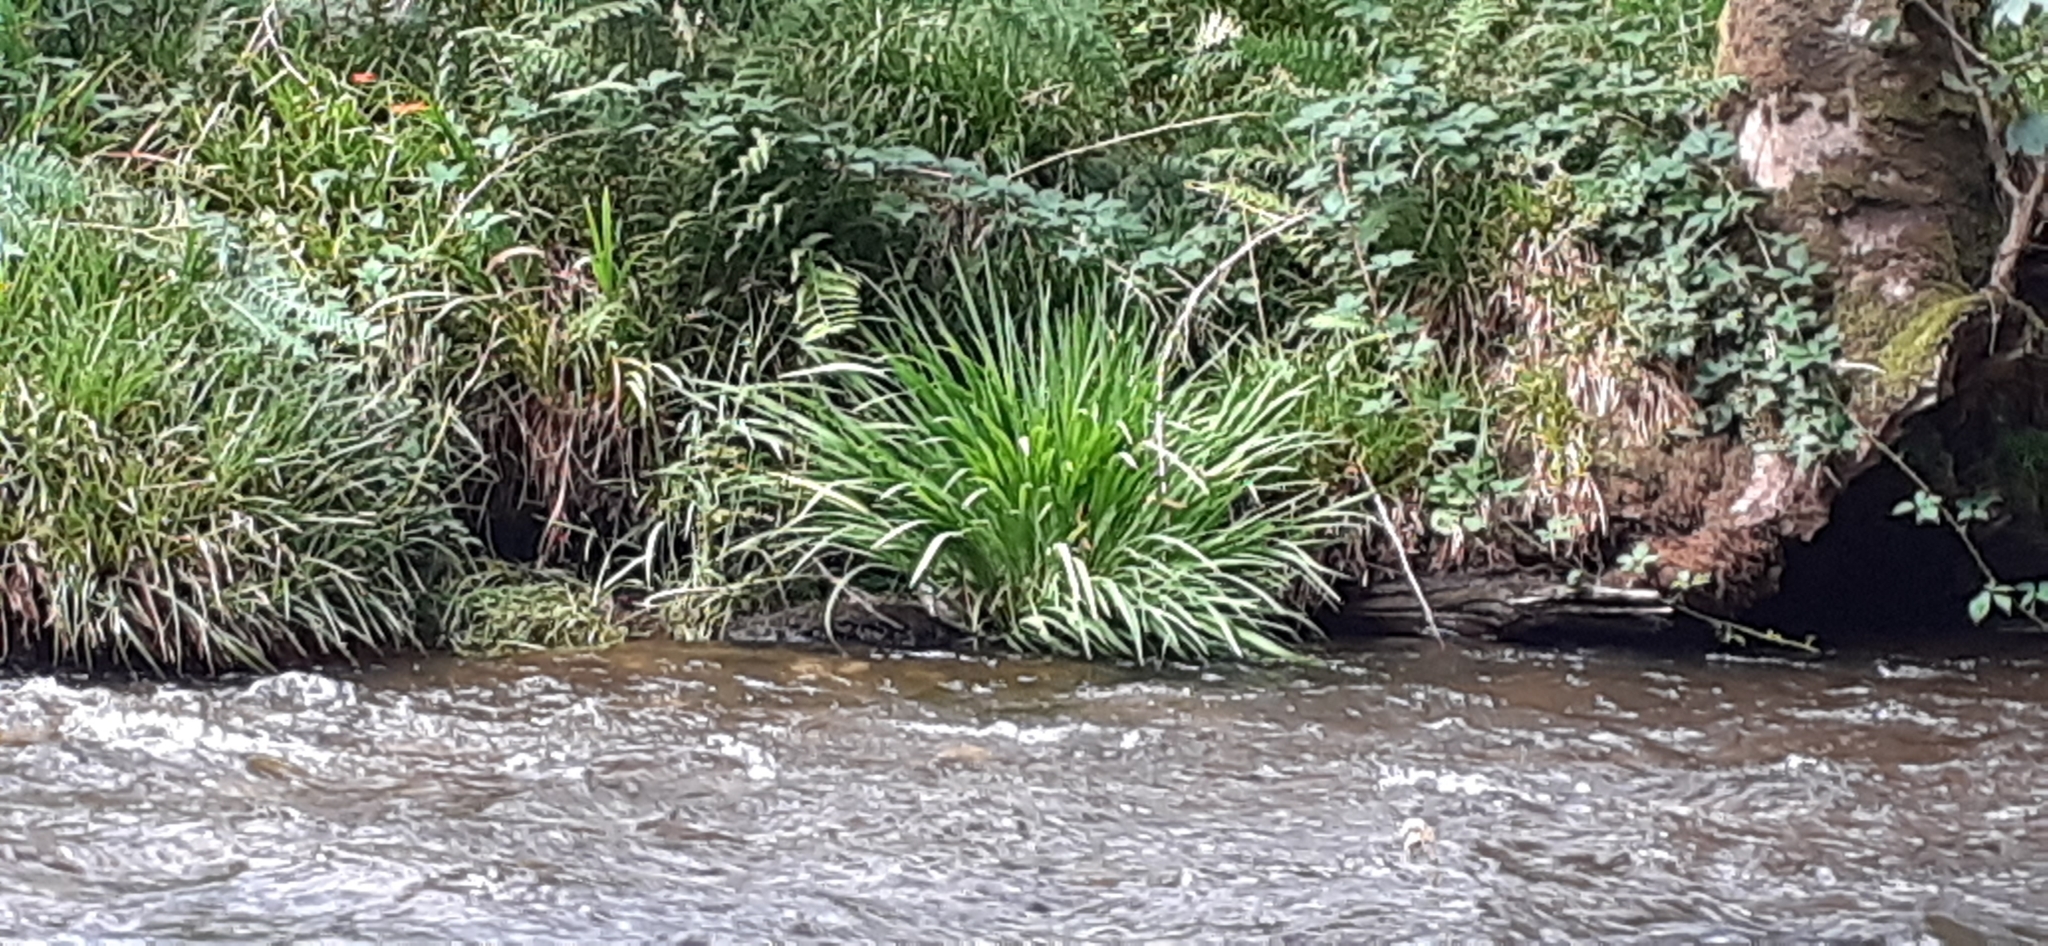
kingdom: Plantae
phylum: Tracheophyta
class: Liliopsida
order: Asparagales
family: Iridaceae
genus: Crocosmia
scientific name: Crocosmia crocosmiiflora
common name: Montbretia
